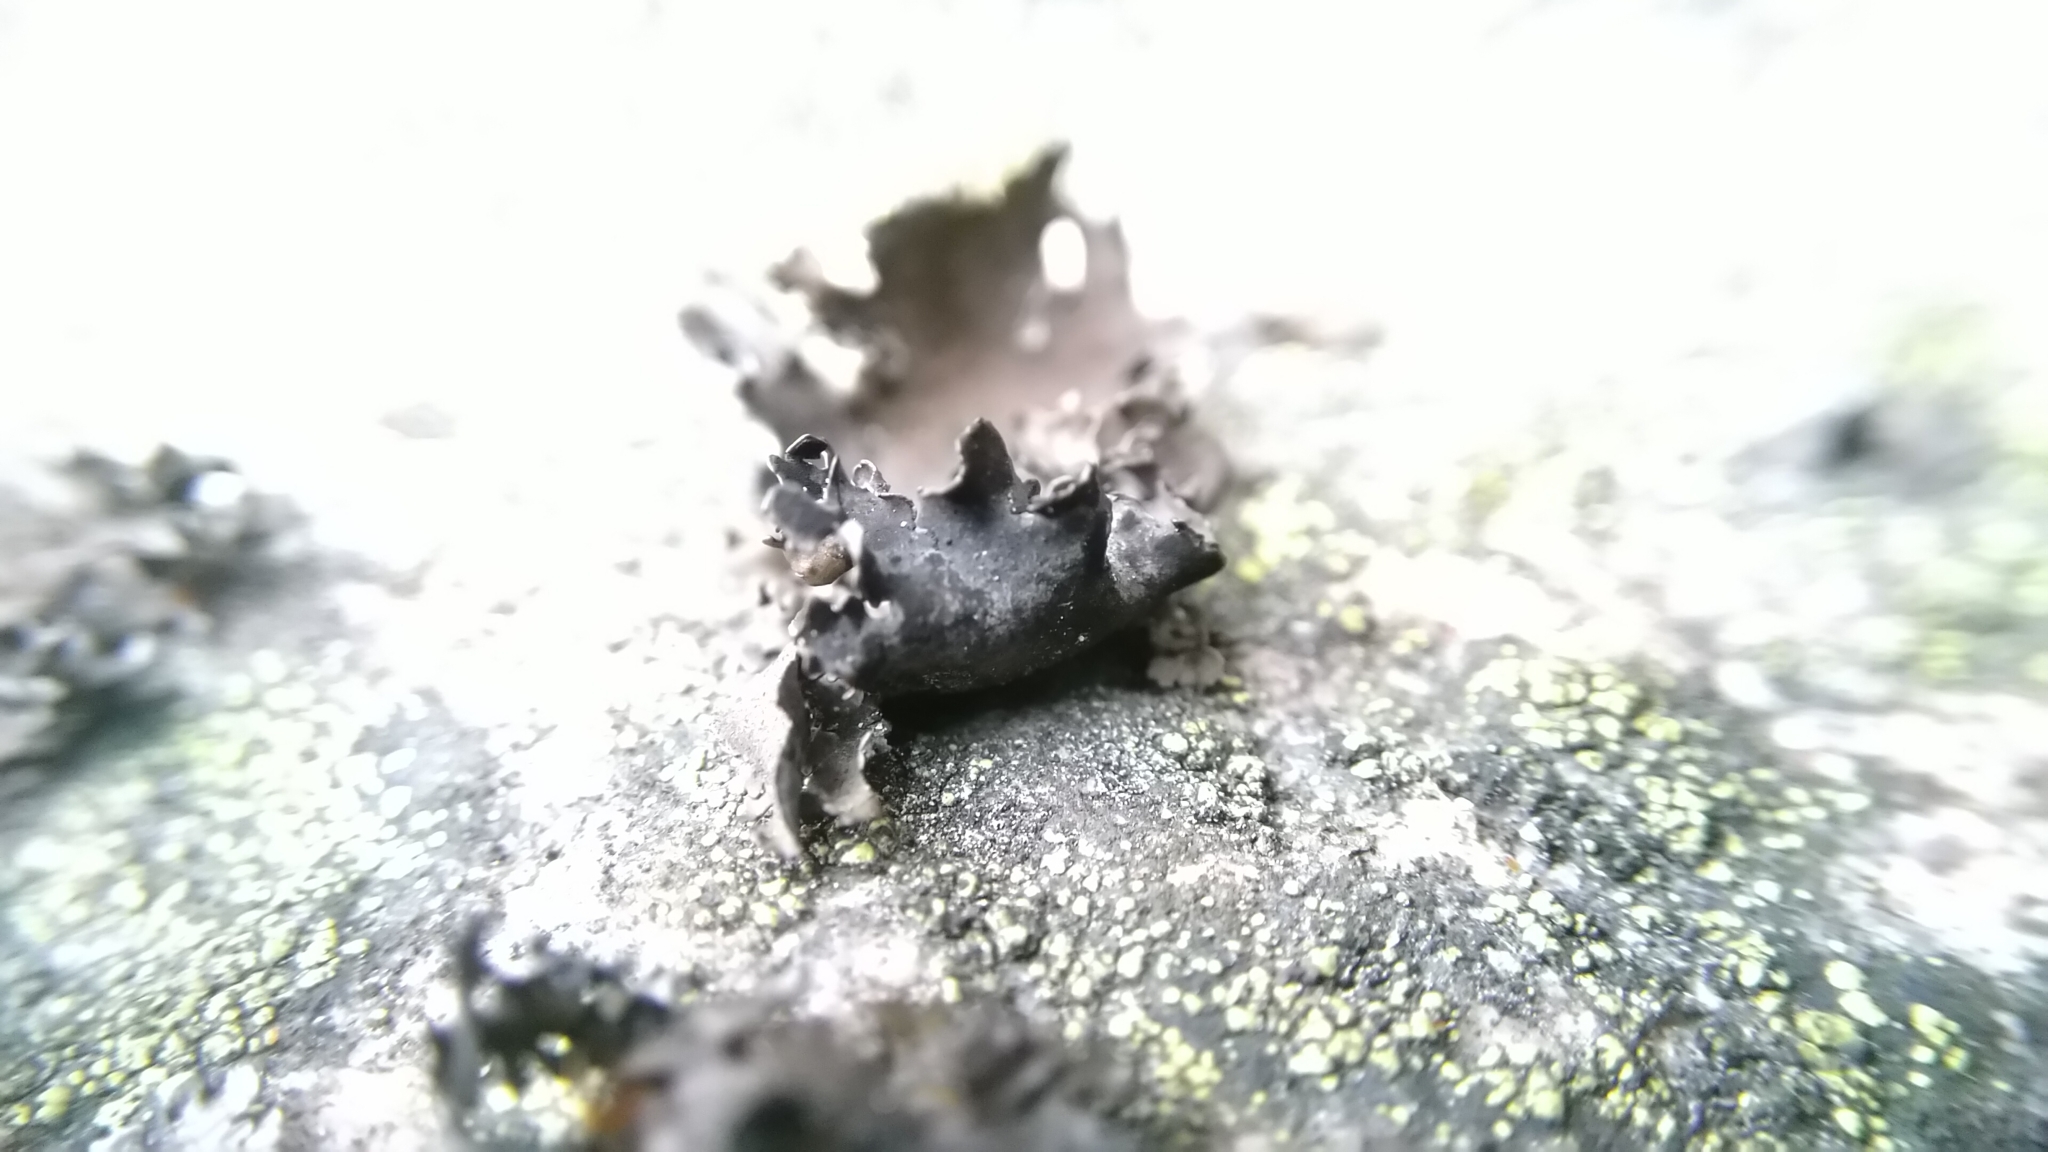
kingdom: Fungi
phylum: Ascomycota
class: Lecanoromycetes
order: Lecanorales
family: Parmeliaceae
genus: Melanelia
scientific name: Melanelia hepatizon
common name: Rimmed camouflage lichen
